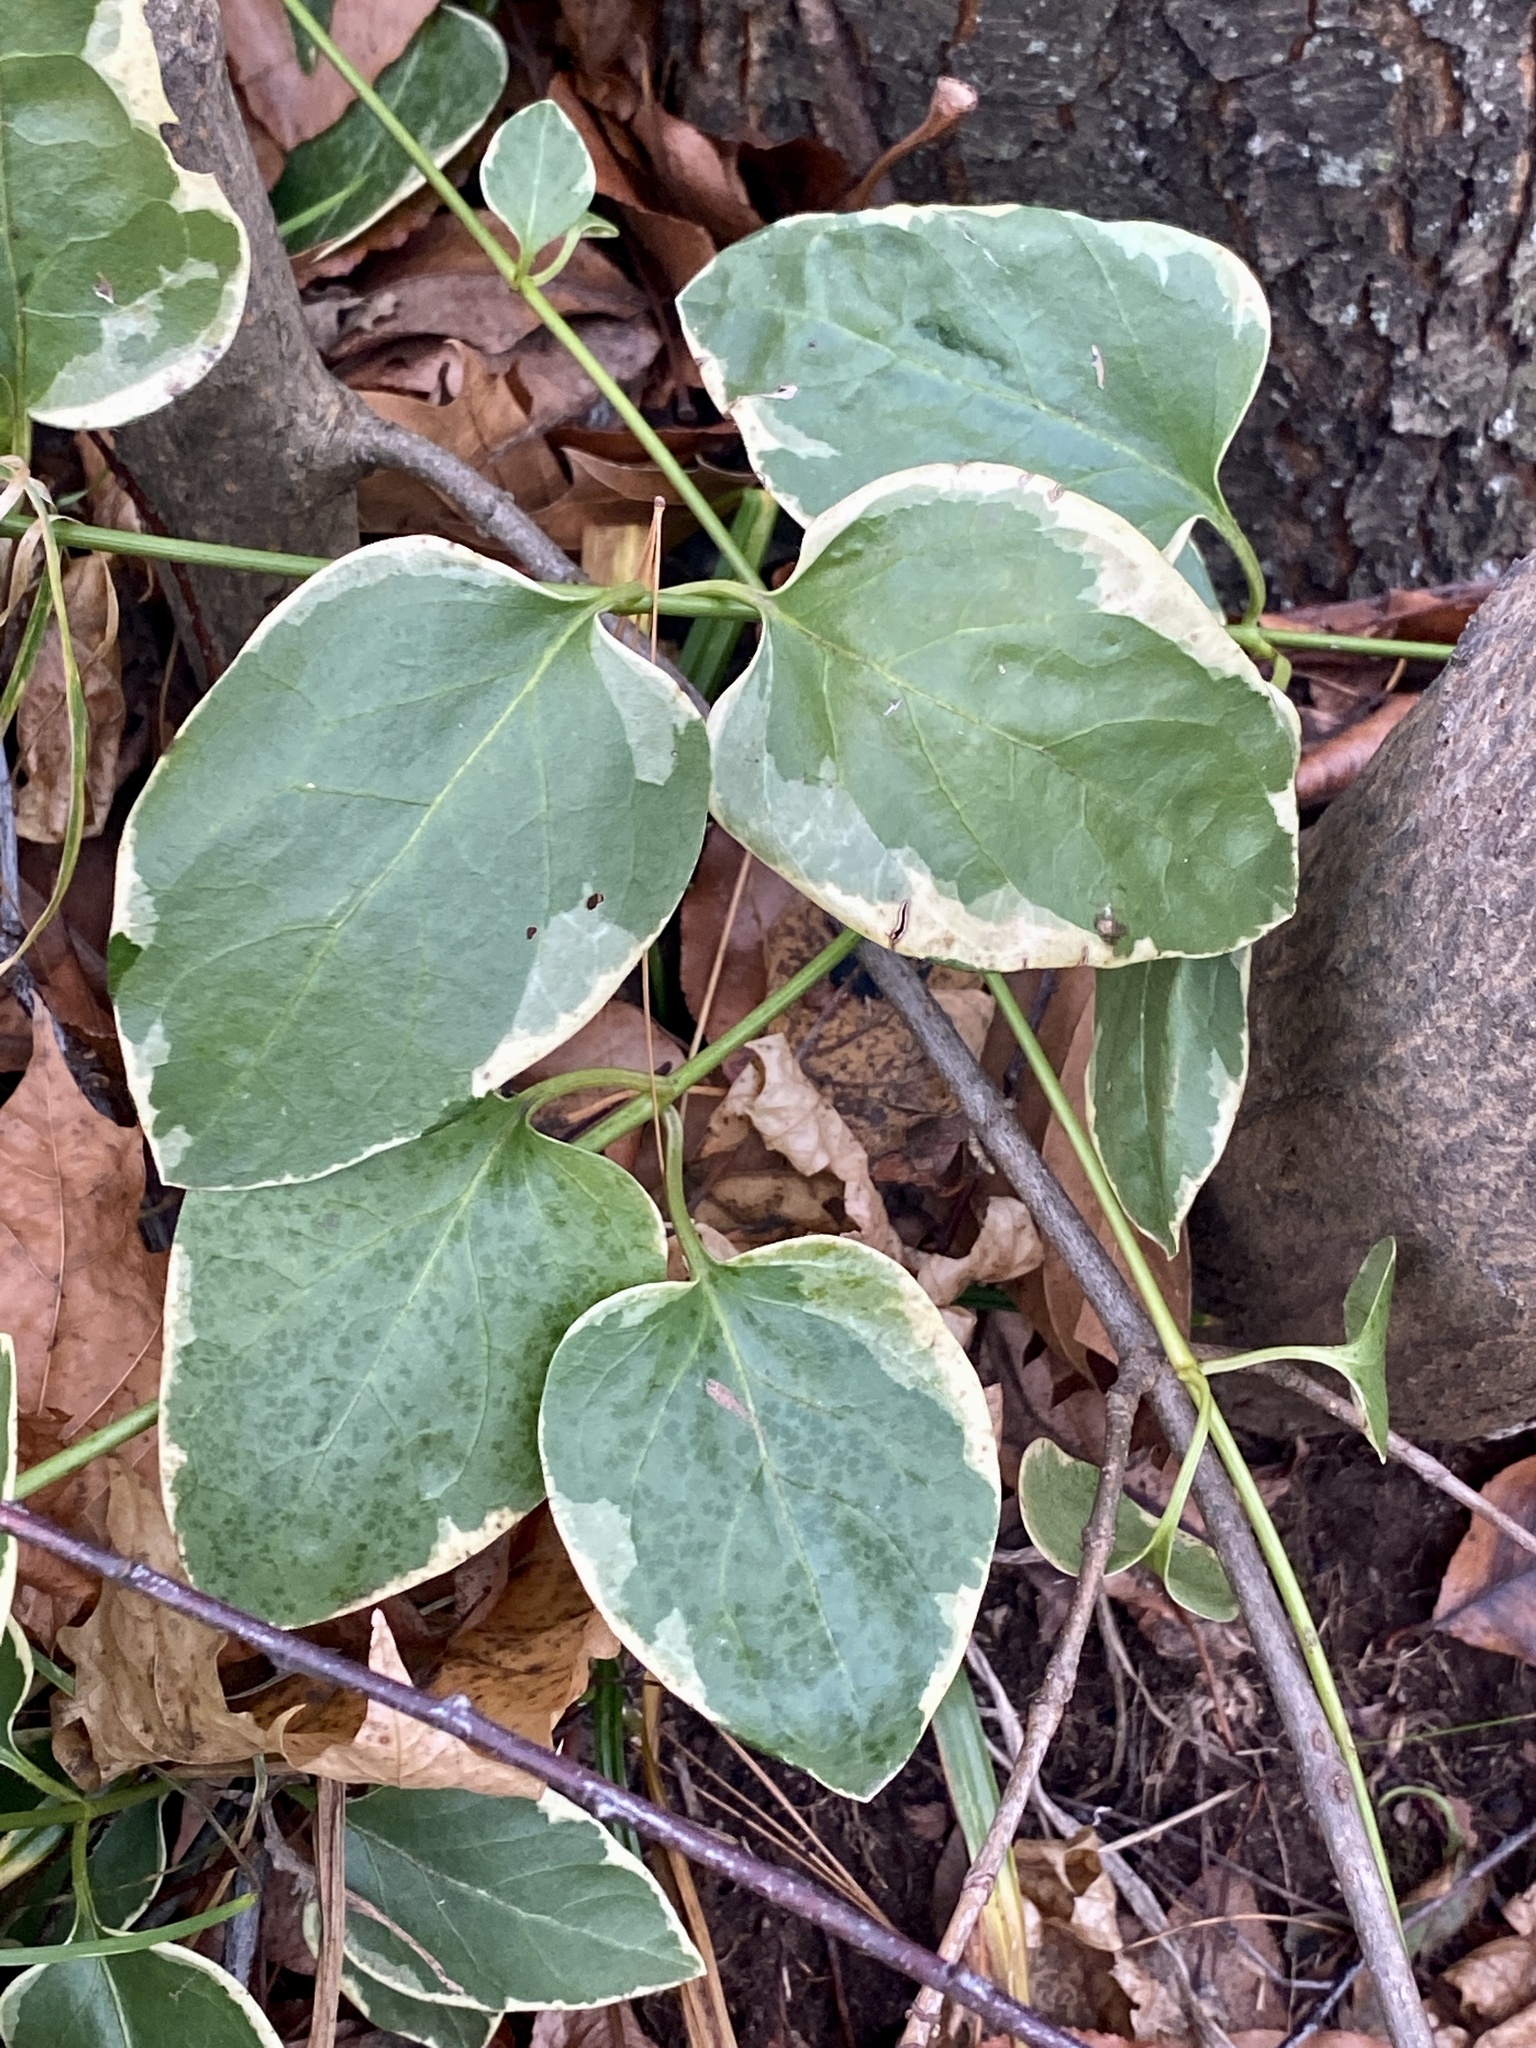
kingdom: Plantae
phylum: Tracheophyta
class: Magnoliopsida
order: Gentianales
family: Apocynaceae
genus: Vinca
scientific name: Vinca major
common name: Greater periwinkle
